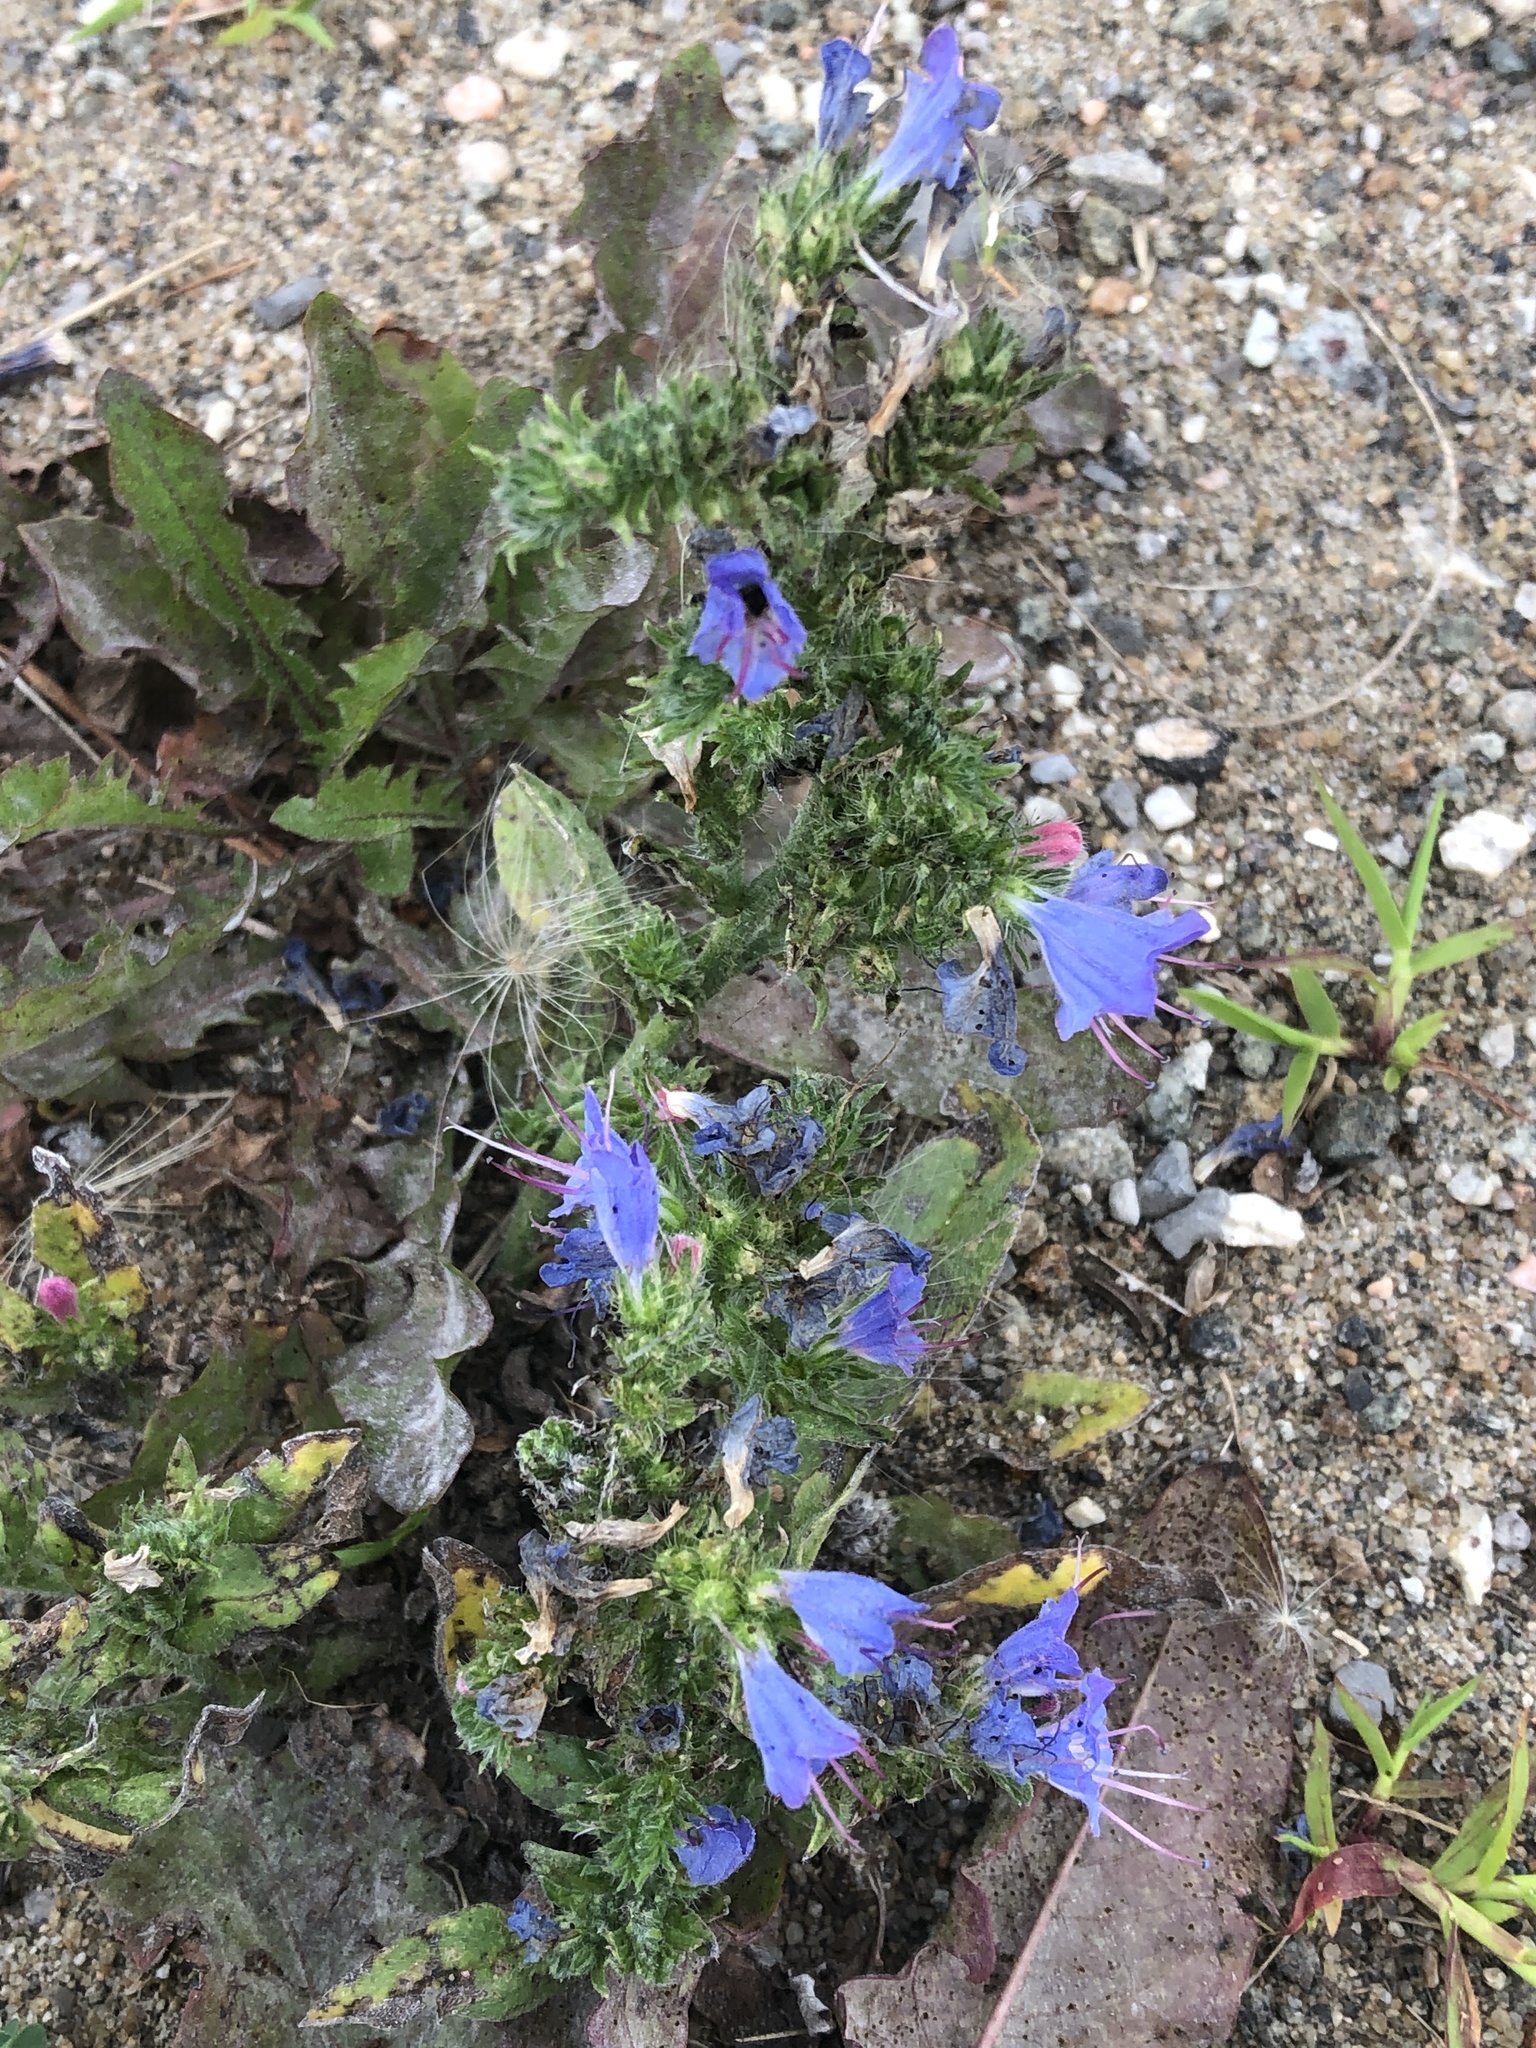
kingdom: Plantae
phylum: Tracheophyta
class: Magnoliopsida
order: Boraginales
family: Boraginaceae
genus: Echium
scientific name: Echium vulgare
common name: Common viper's bugloss
